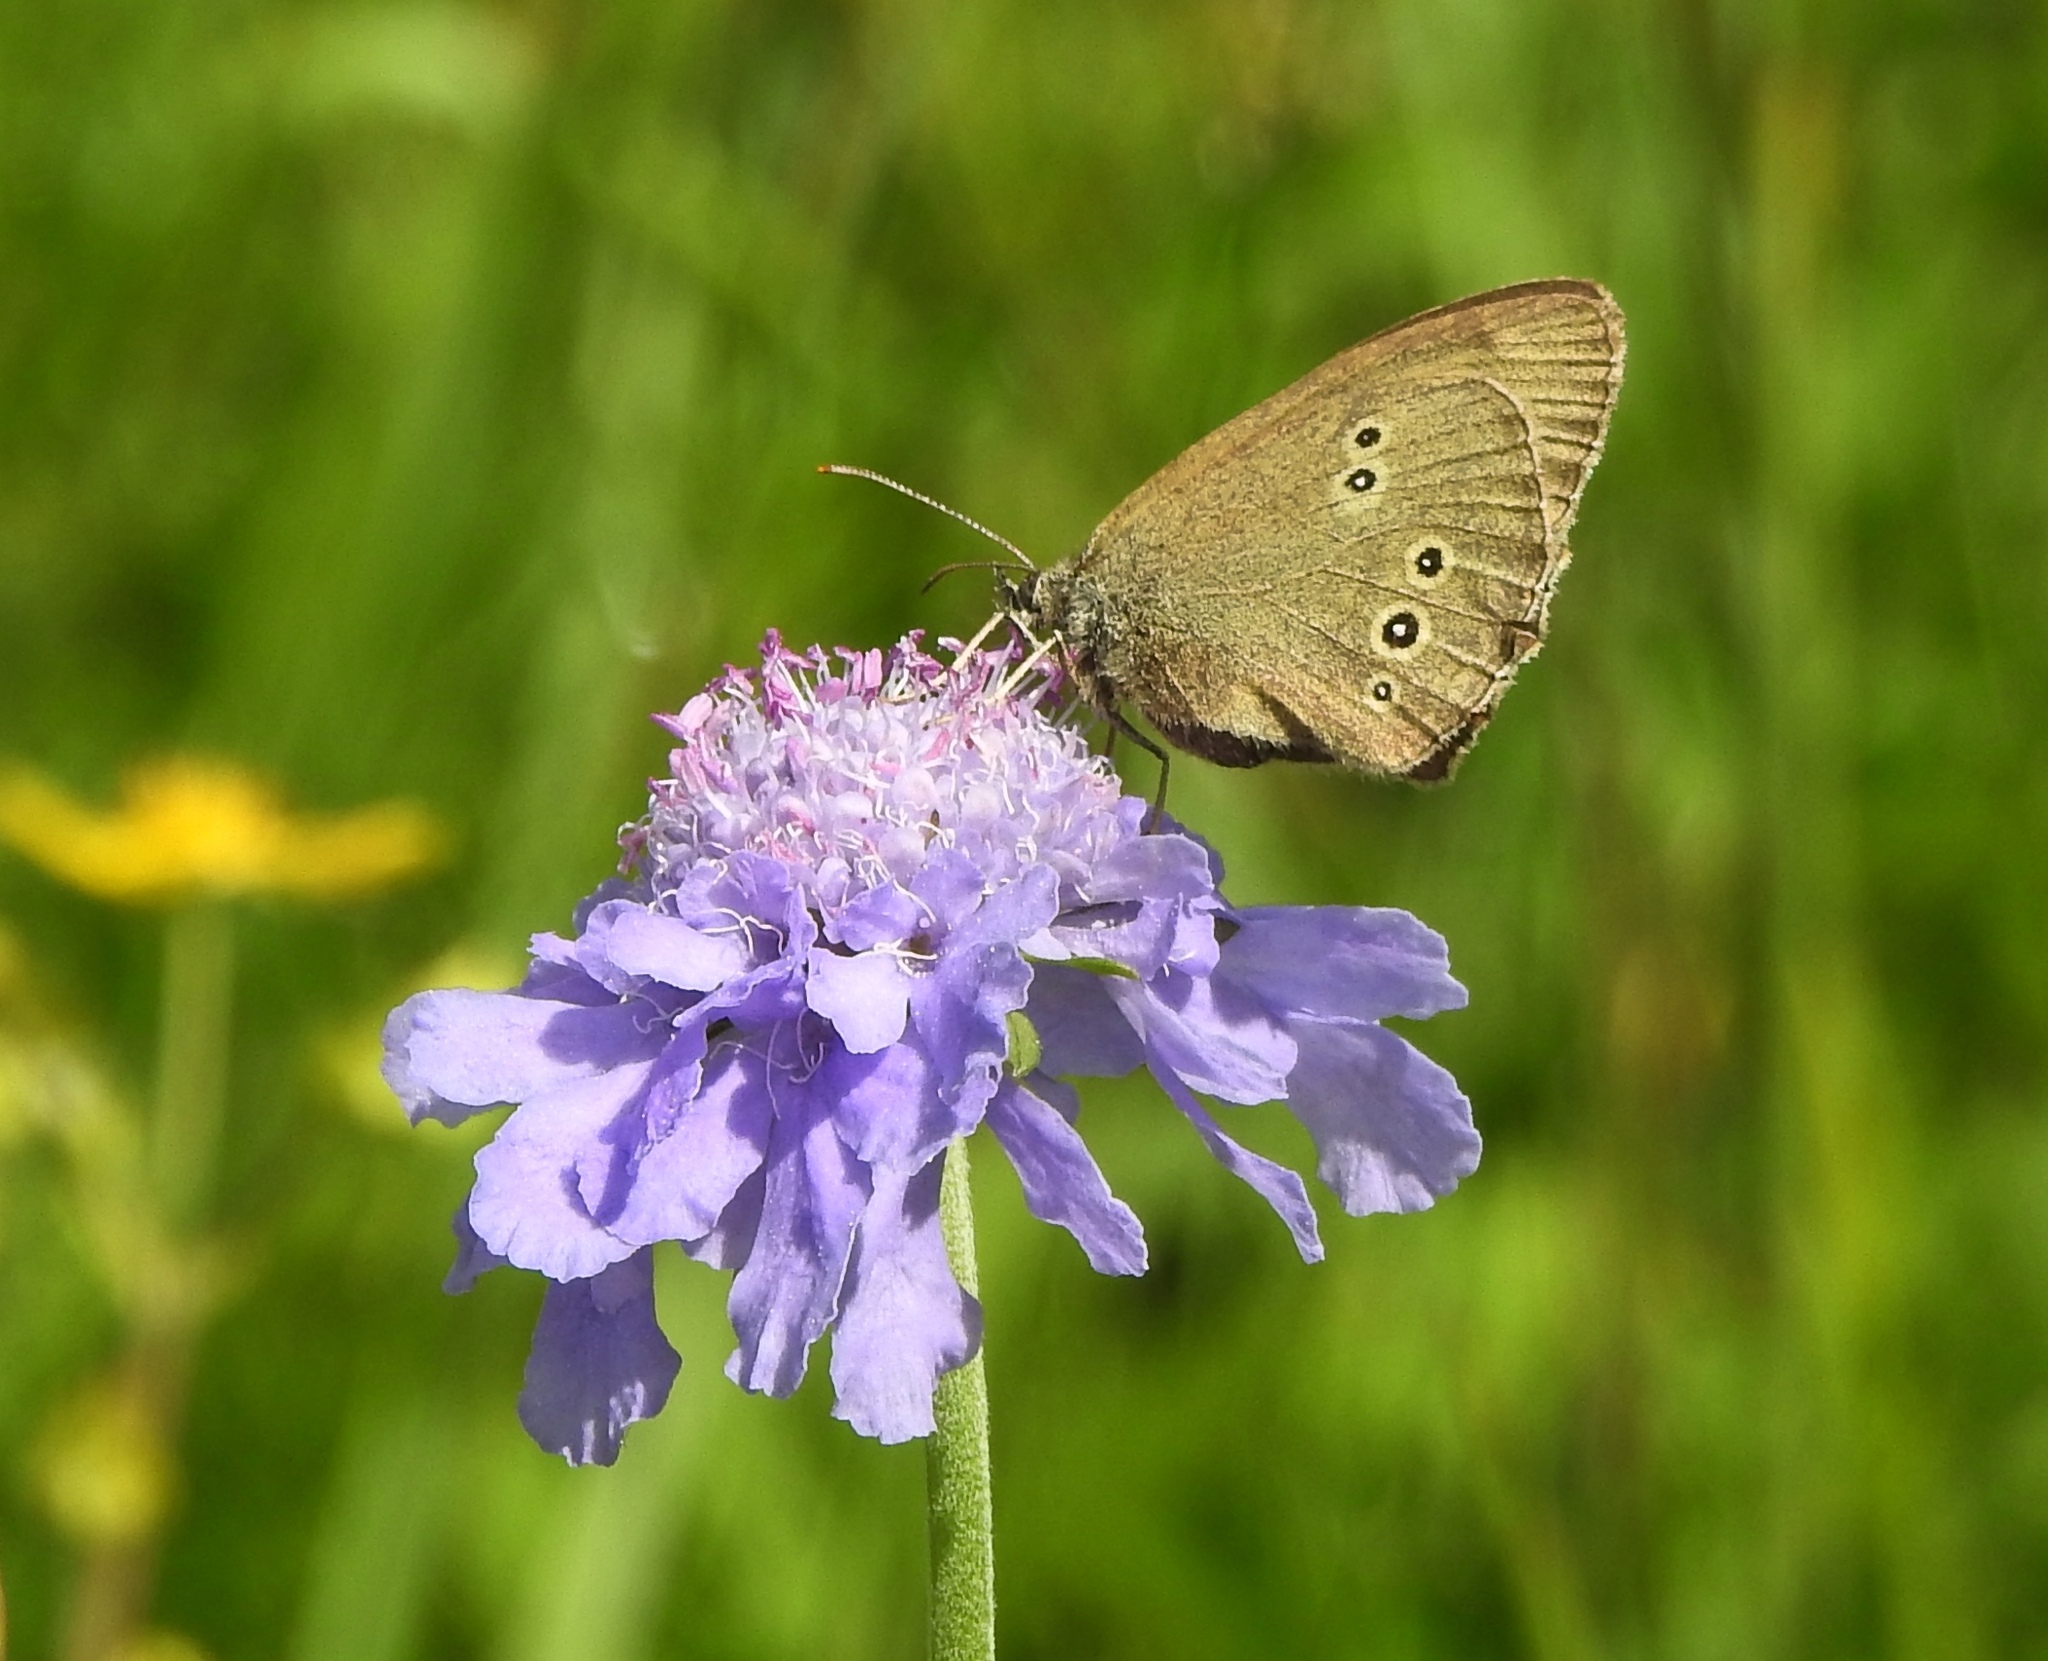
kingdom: Animalia
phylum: Arthropoda
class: Insecta
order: Lepidoptera
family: Nymphalidae
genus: Aphantopus
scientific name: Aphantopus hyperantus
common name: Ringlet
